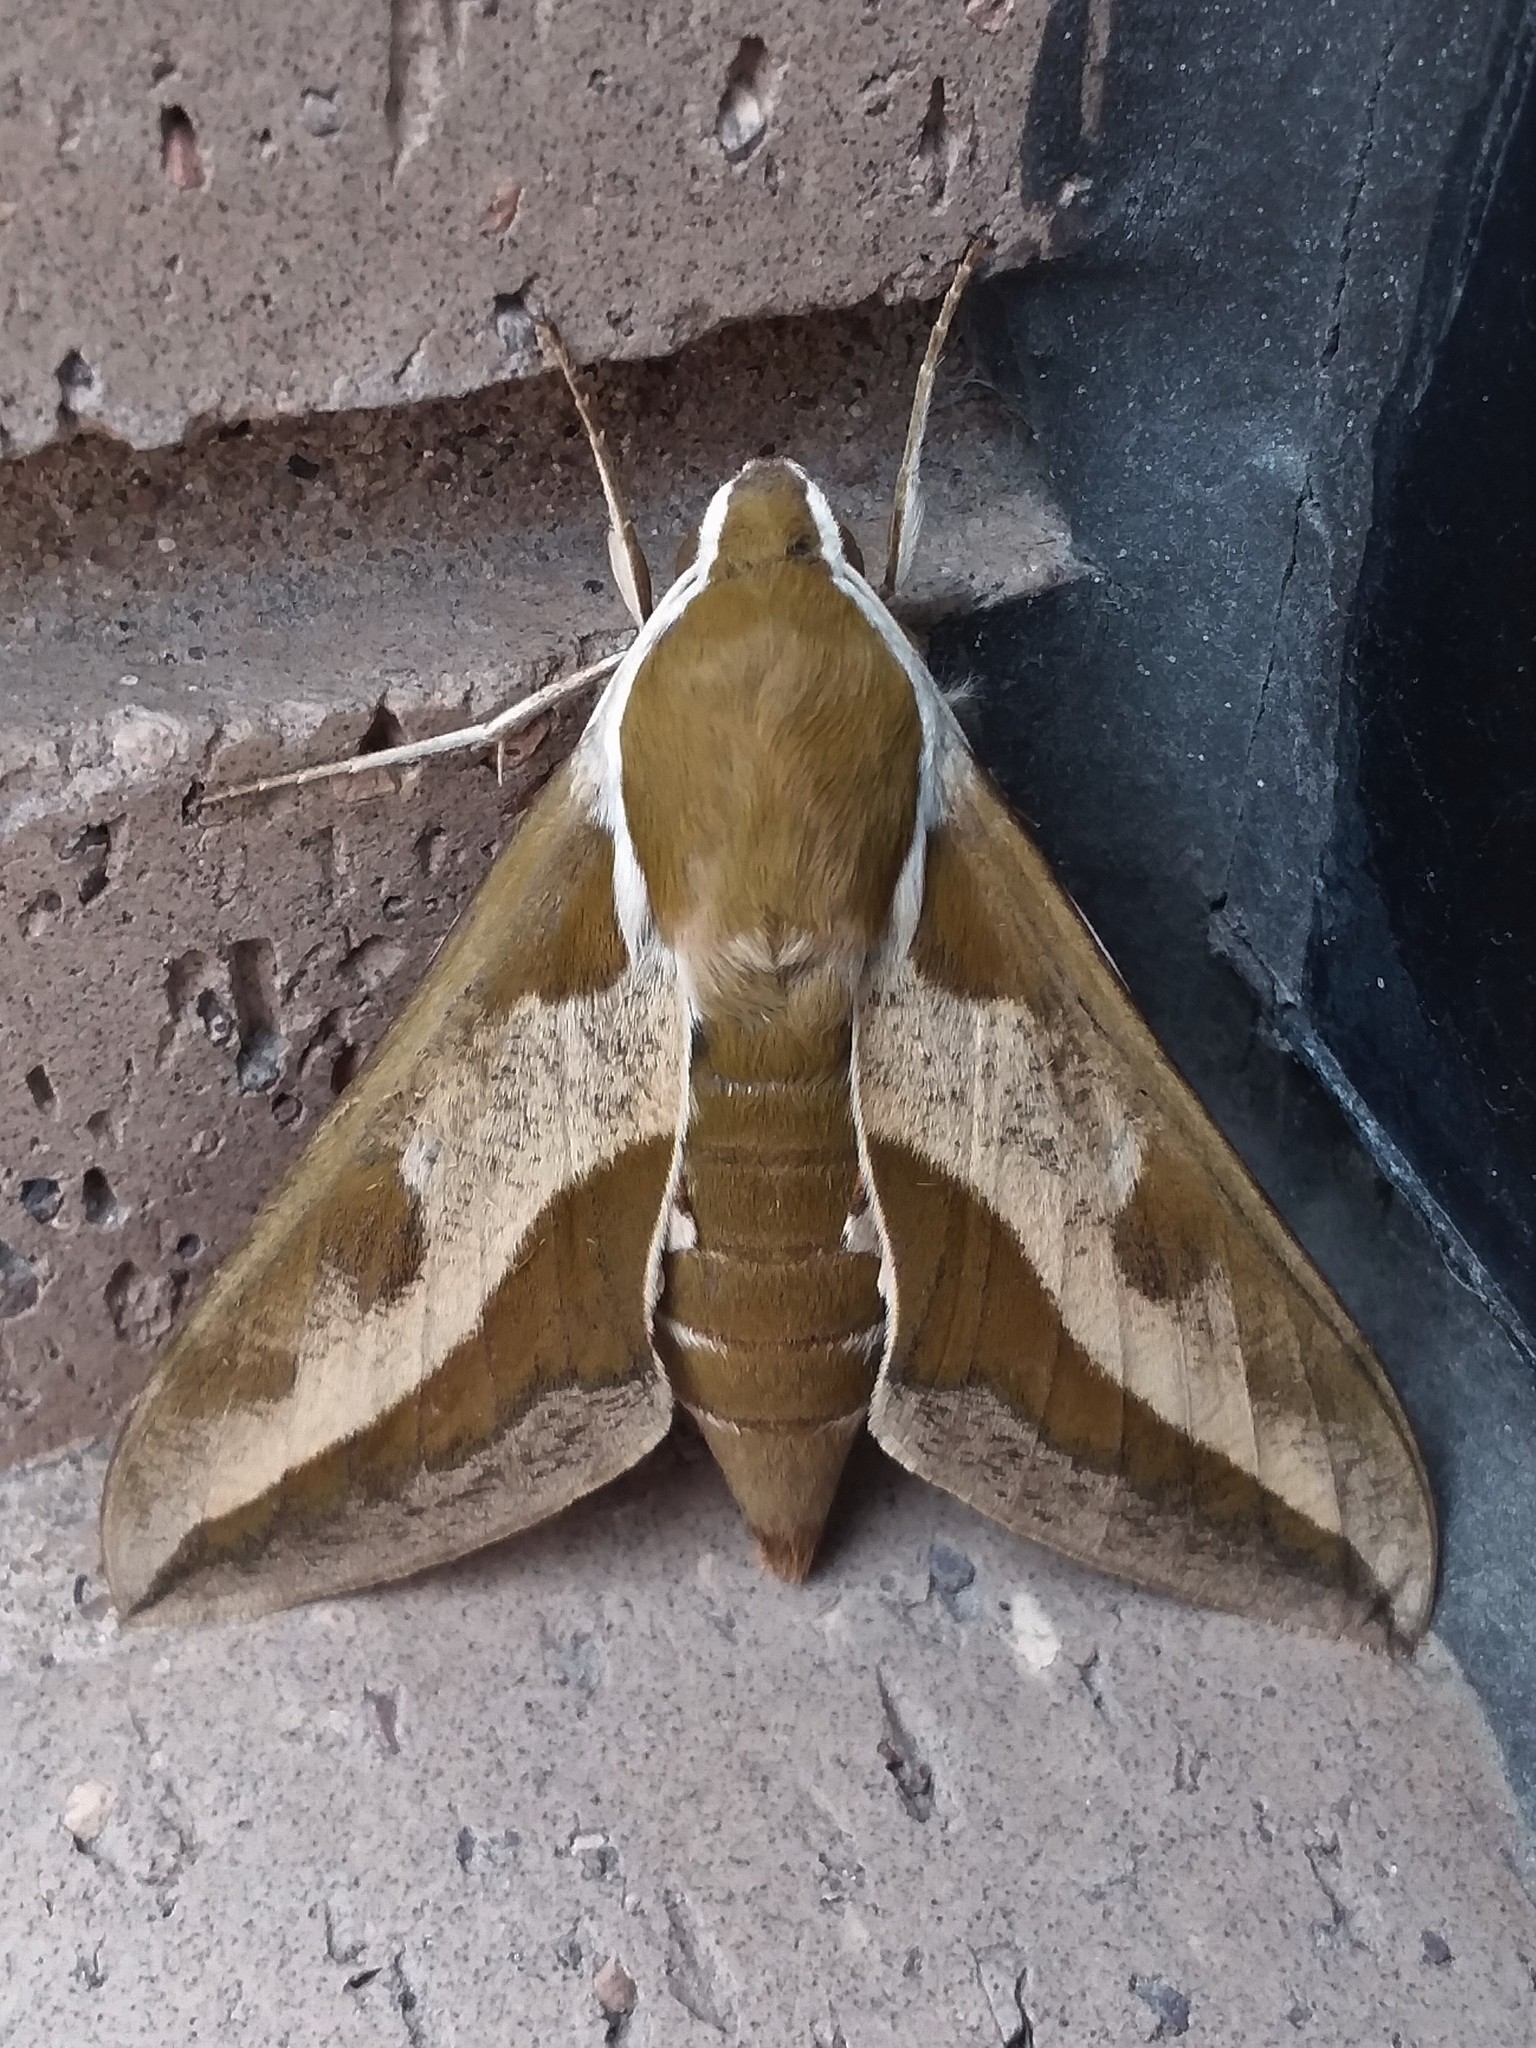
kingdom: Animalia
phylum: Arthropoda
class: Insecta
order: Lepidoptera
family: Sphingidae
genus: Hyles
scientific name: Hyles euphorbiae
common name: Spurge hawk-moth
